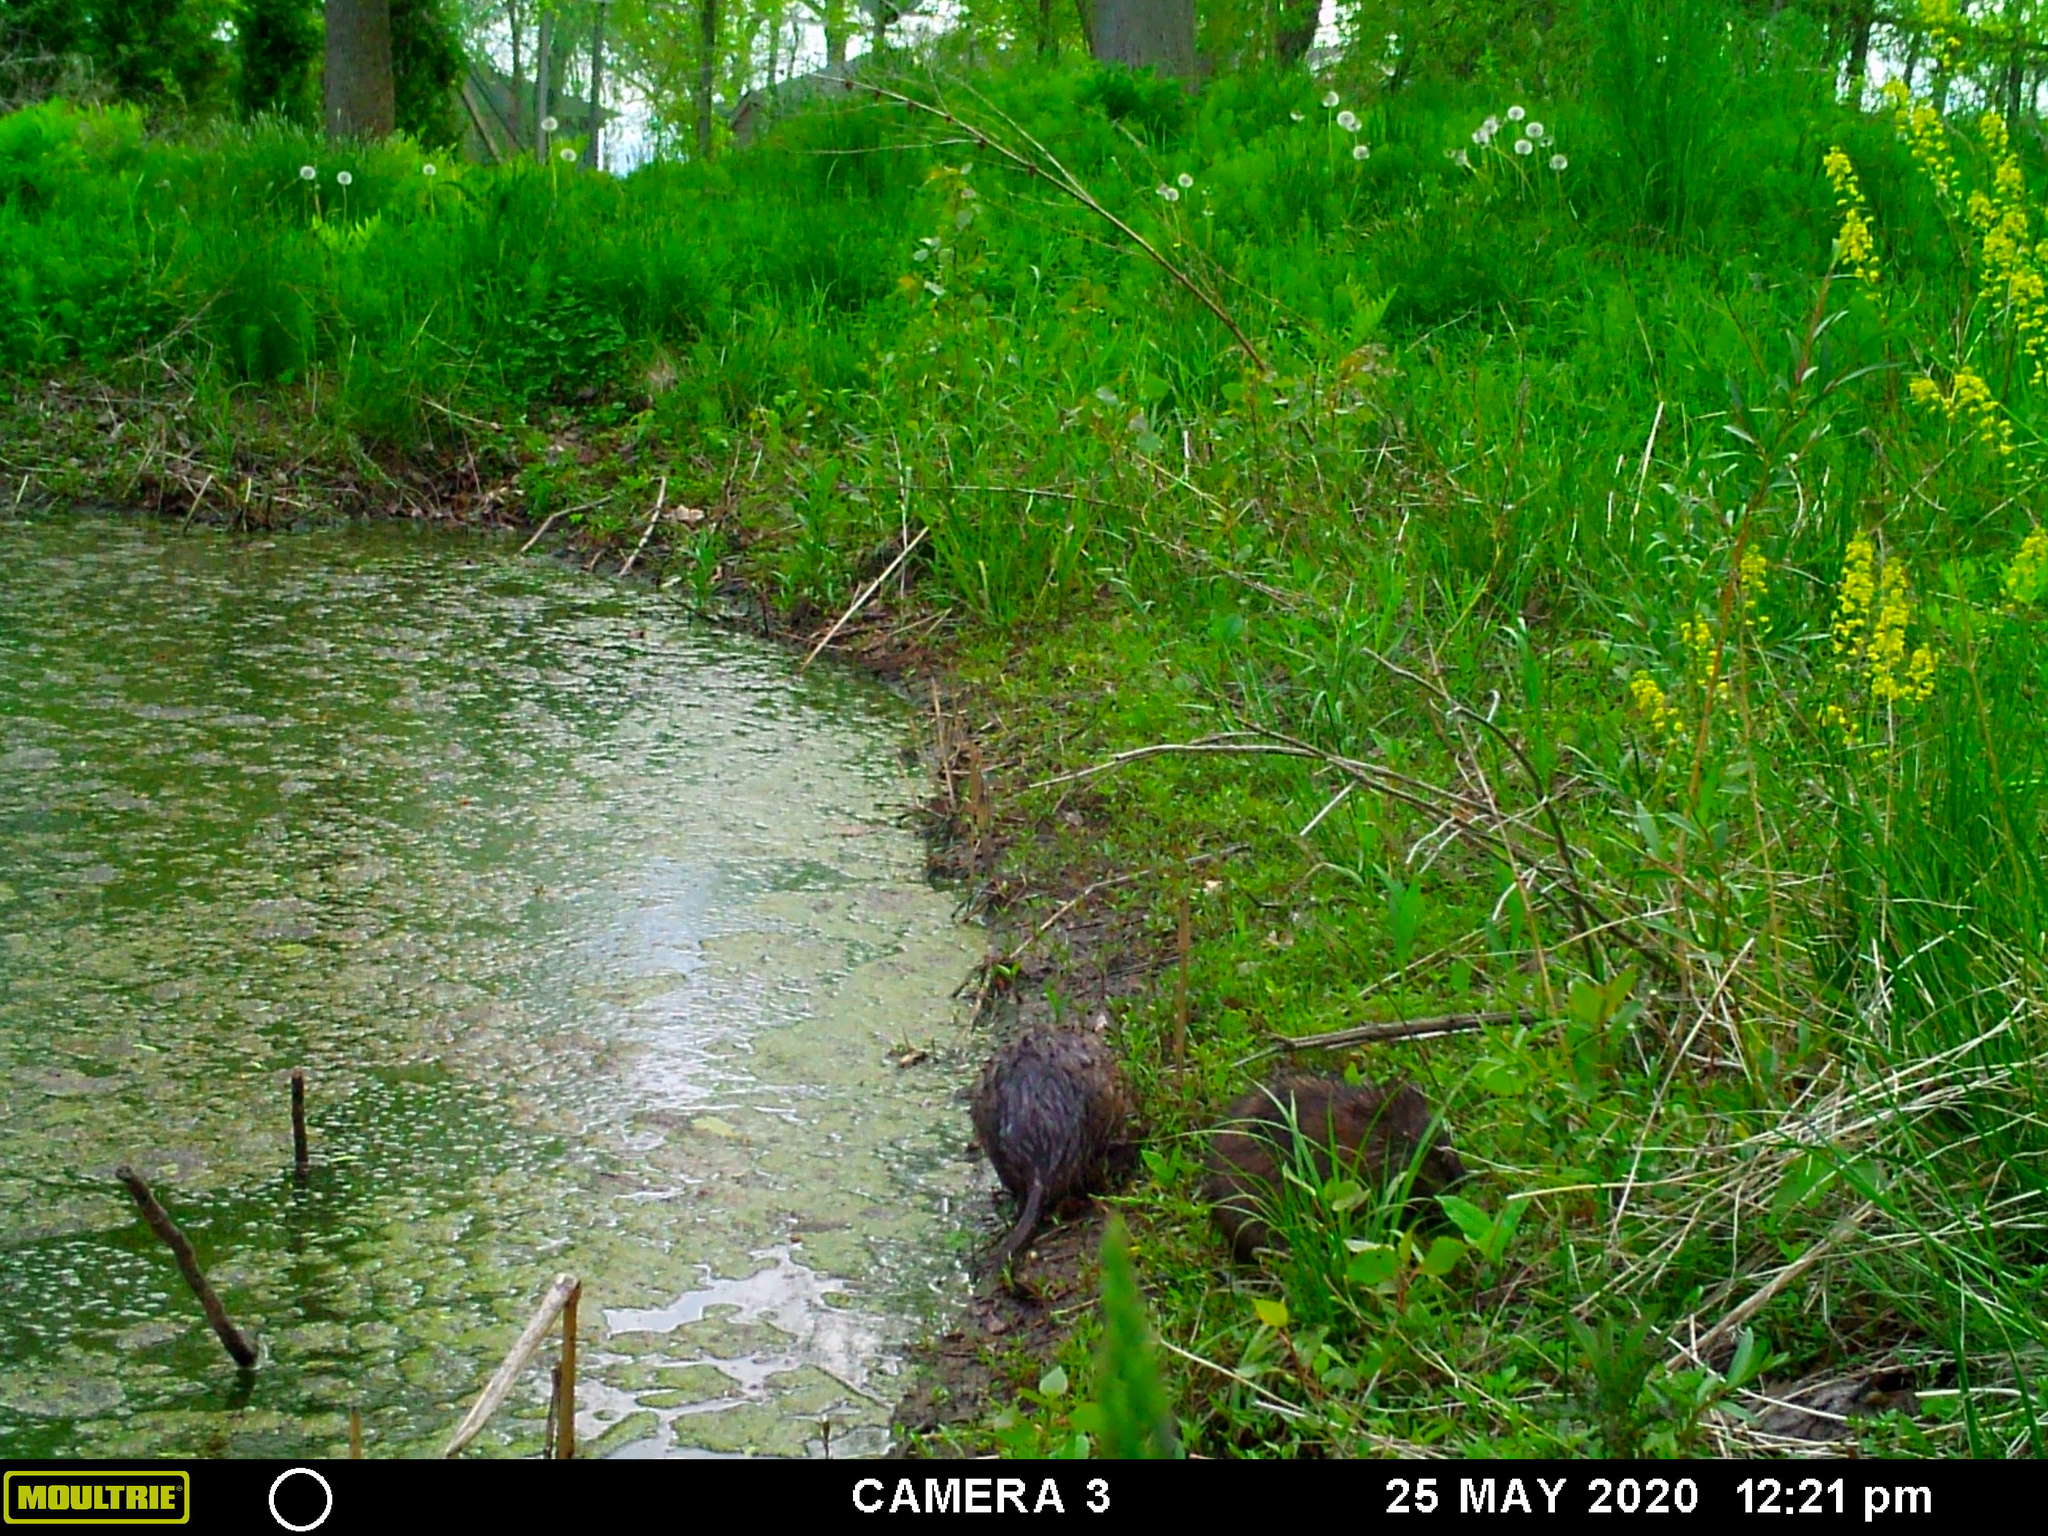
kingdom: Animalia
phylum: Chordata
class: Mammalia
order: Rodentia
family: Cricetidae
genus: Ondatra
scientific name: Ondatra zibethicus
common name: Muskrat
